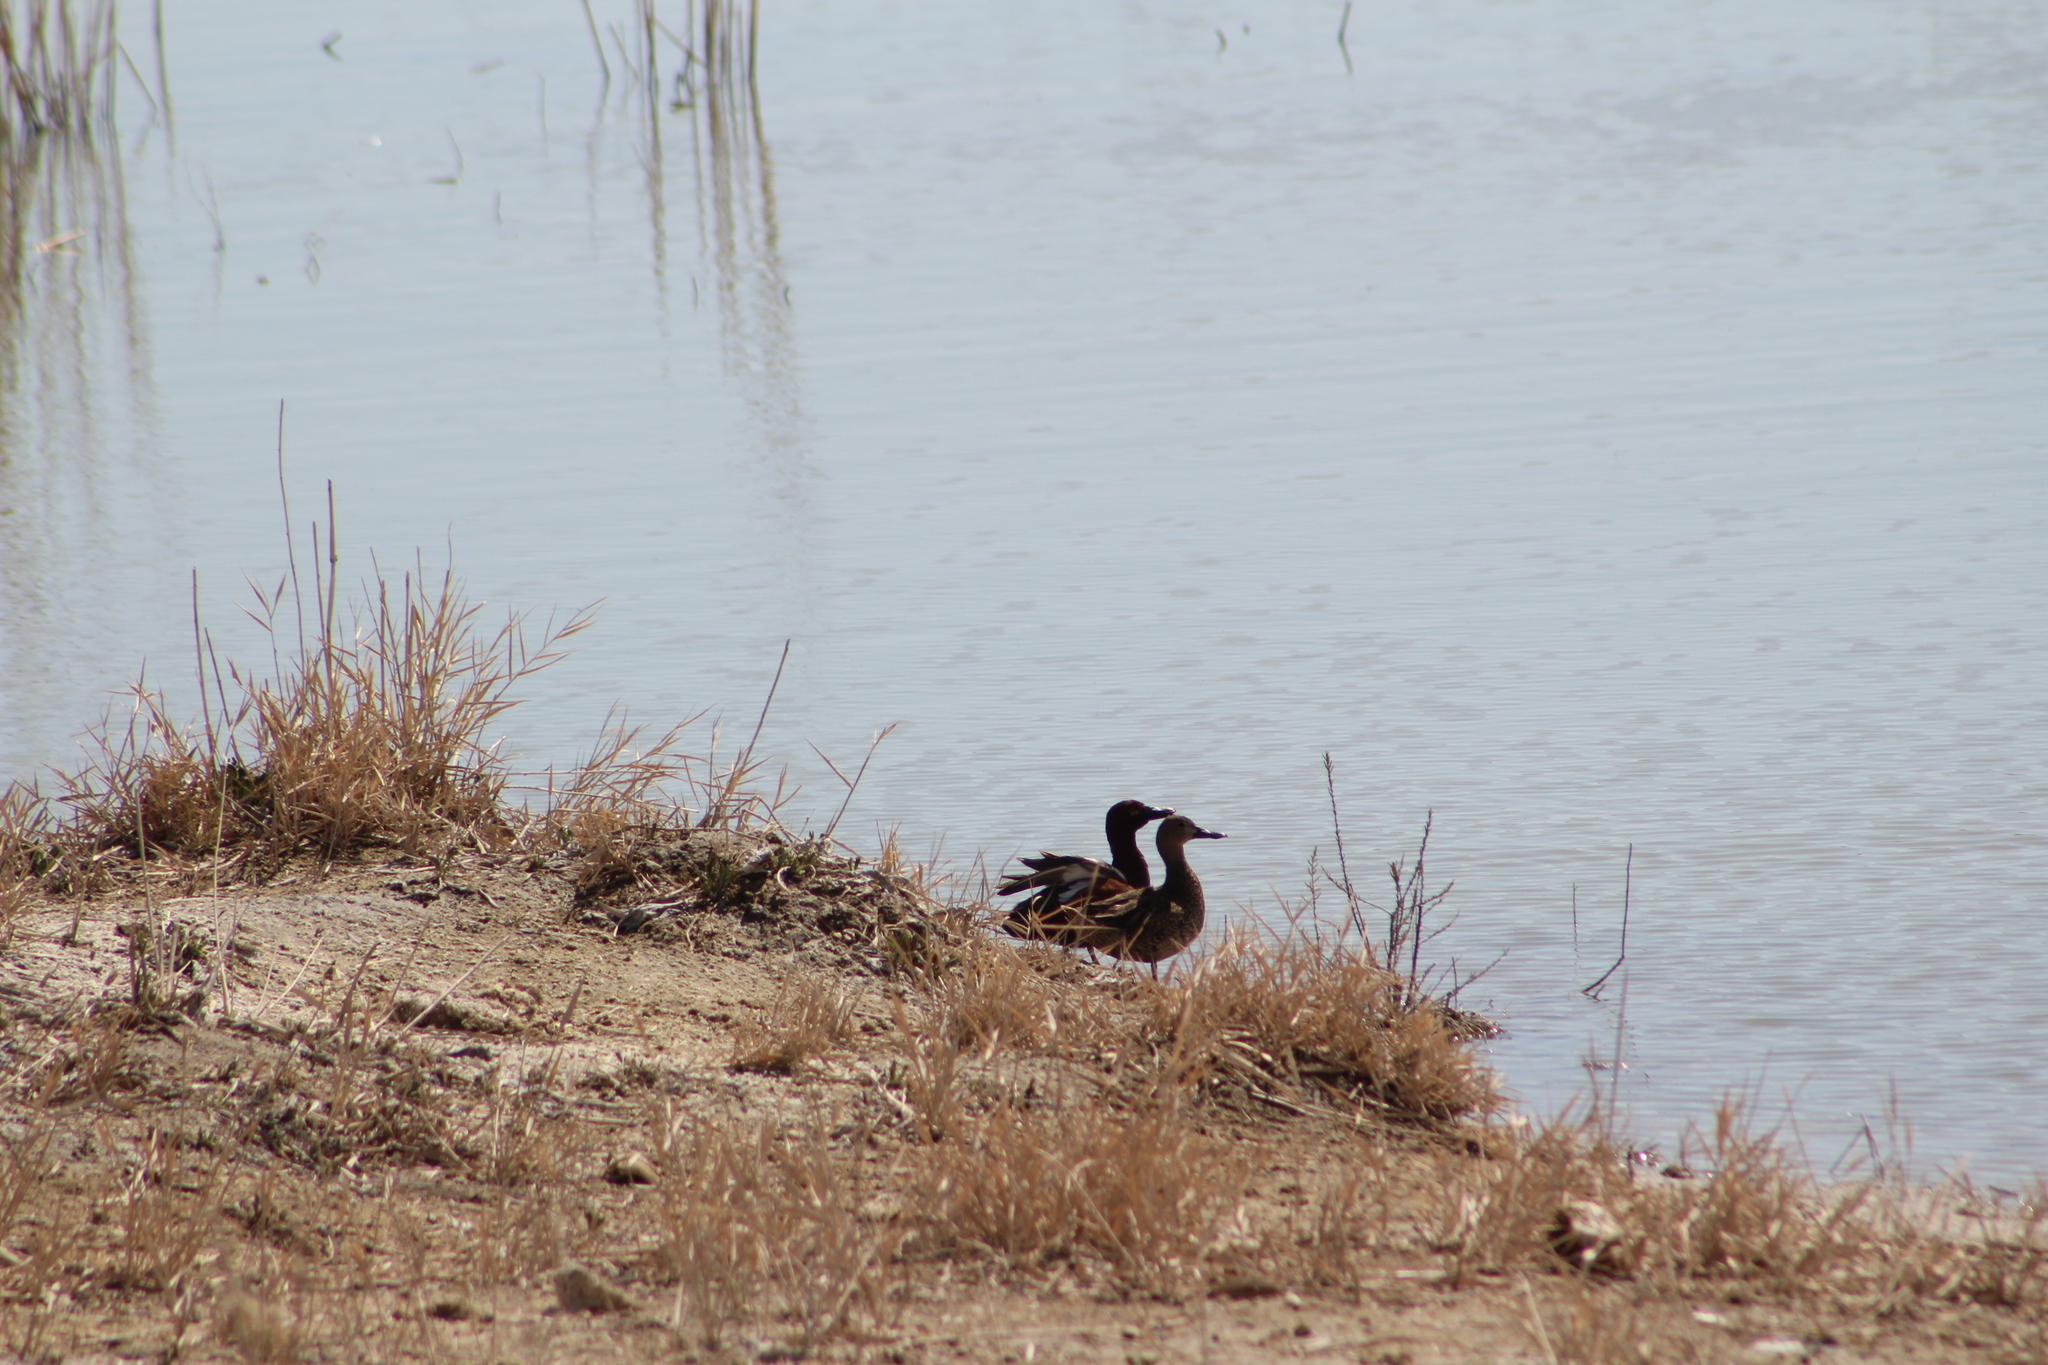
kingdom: Animalia
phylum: Chordata
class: Aves
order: Anseriformes
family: Anatidae
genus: Spatula
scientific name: Spatula cyanoptera
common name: Cinnamon teal
